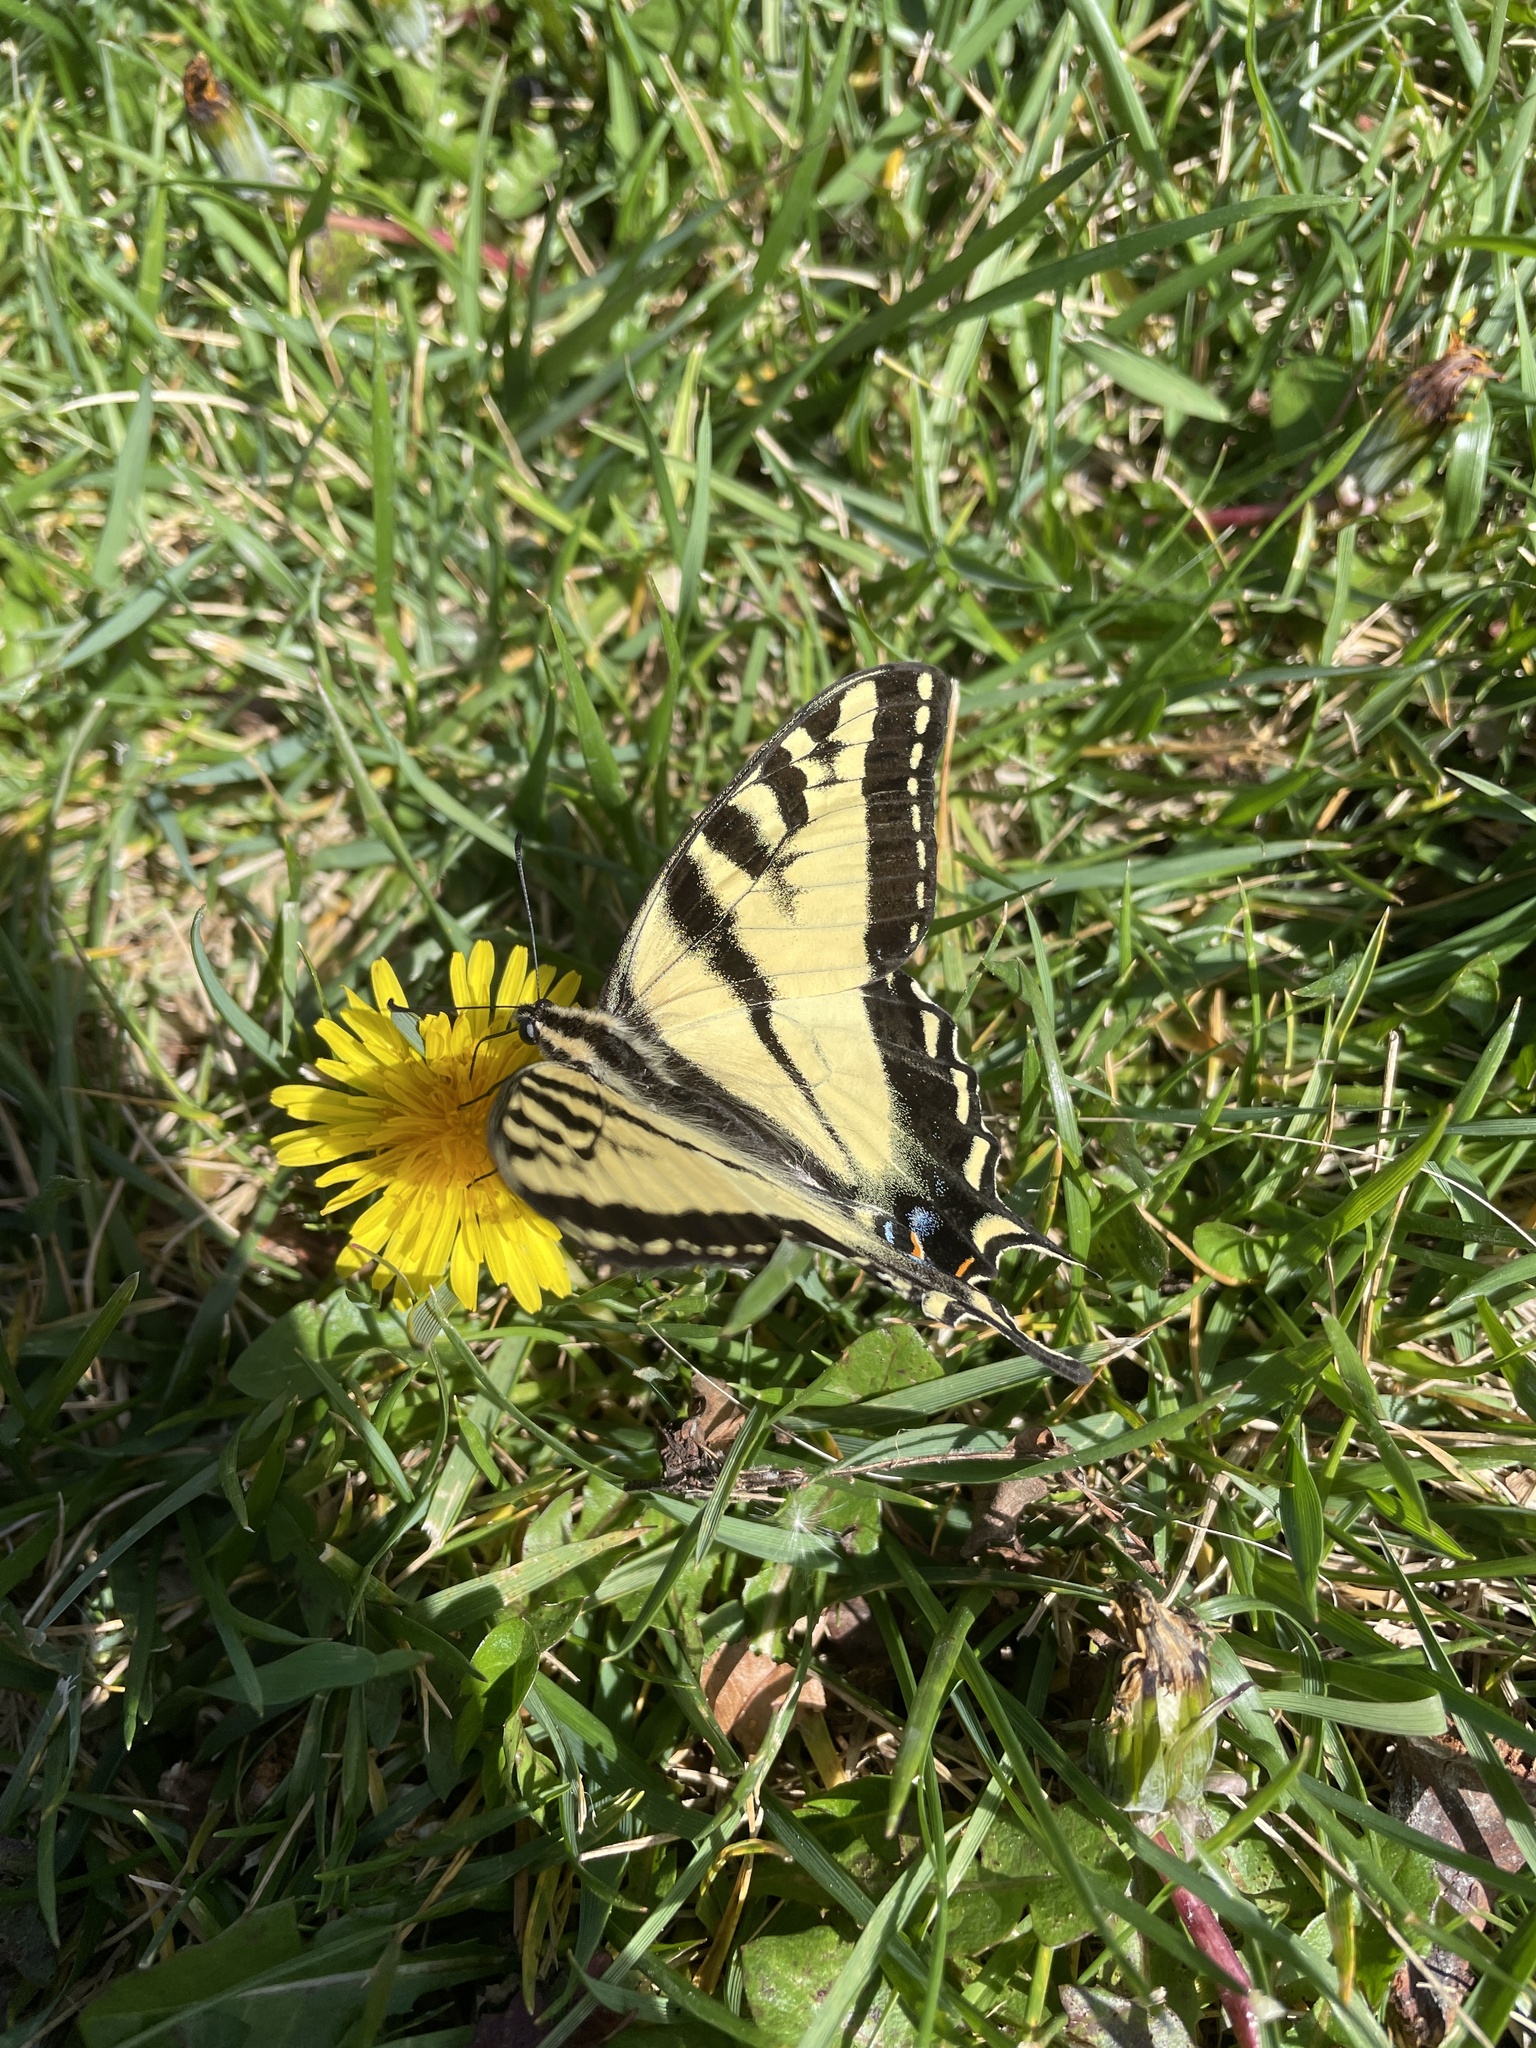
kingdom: Animalia
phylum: Arthropoda
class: Insecta
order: Lepidoptera
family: Papilionidae
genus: Papilio
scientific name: Papilio rutulus
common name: Western tiger swallowtail
